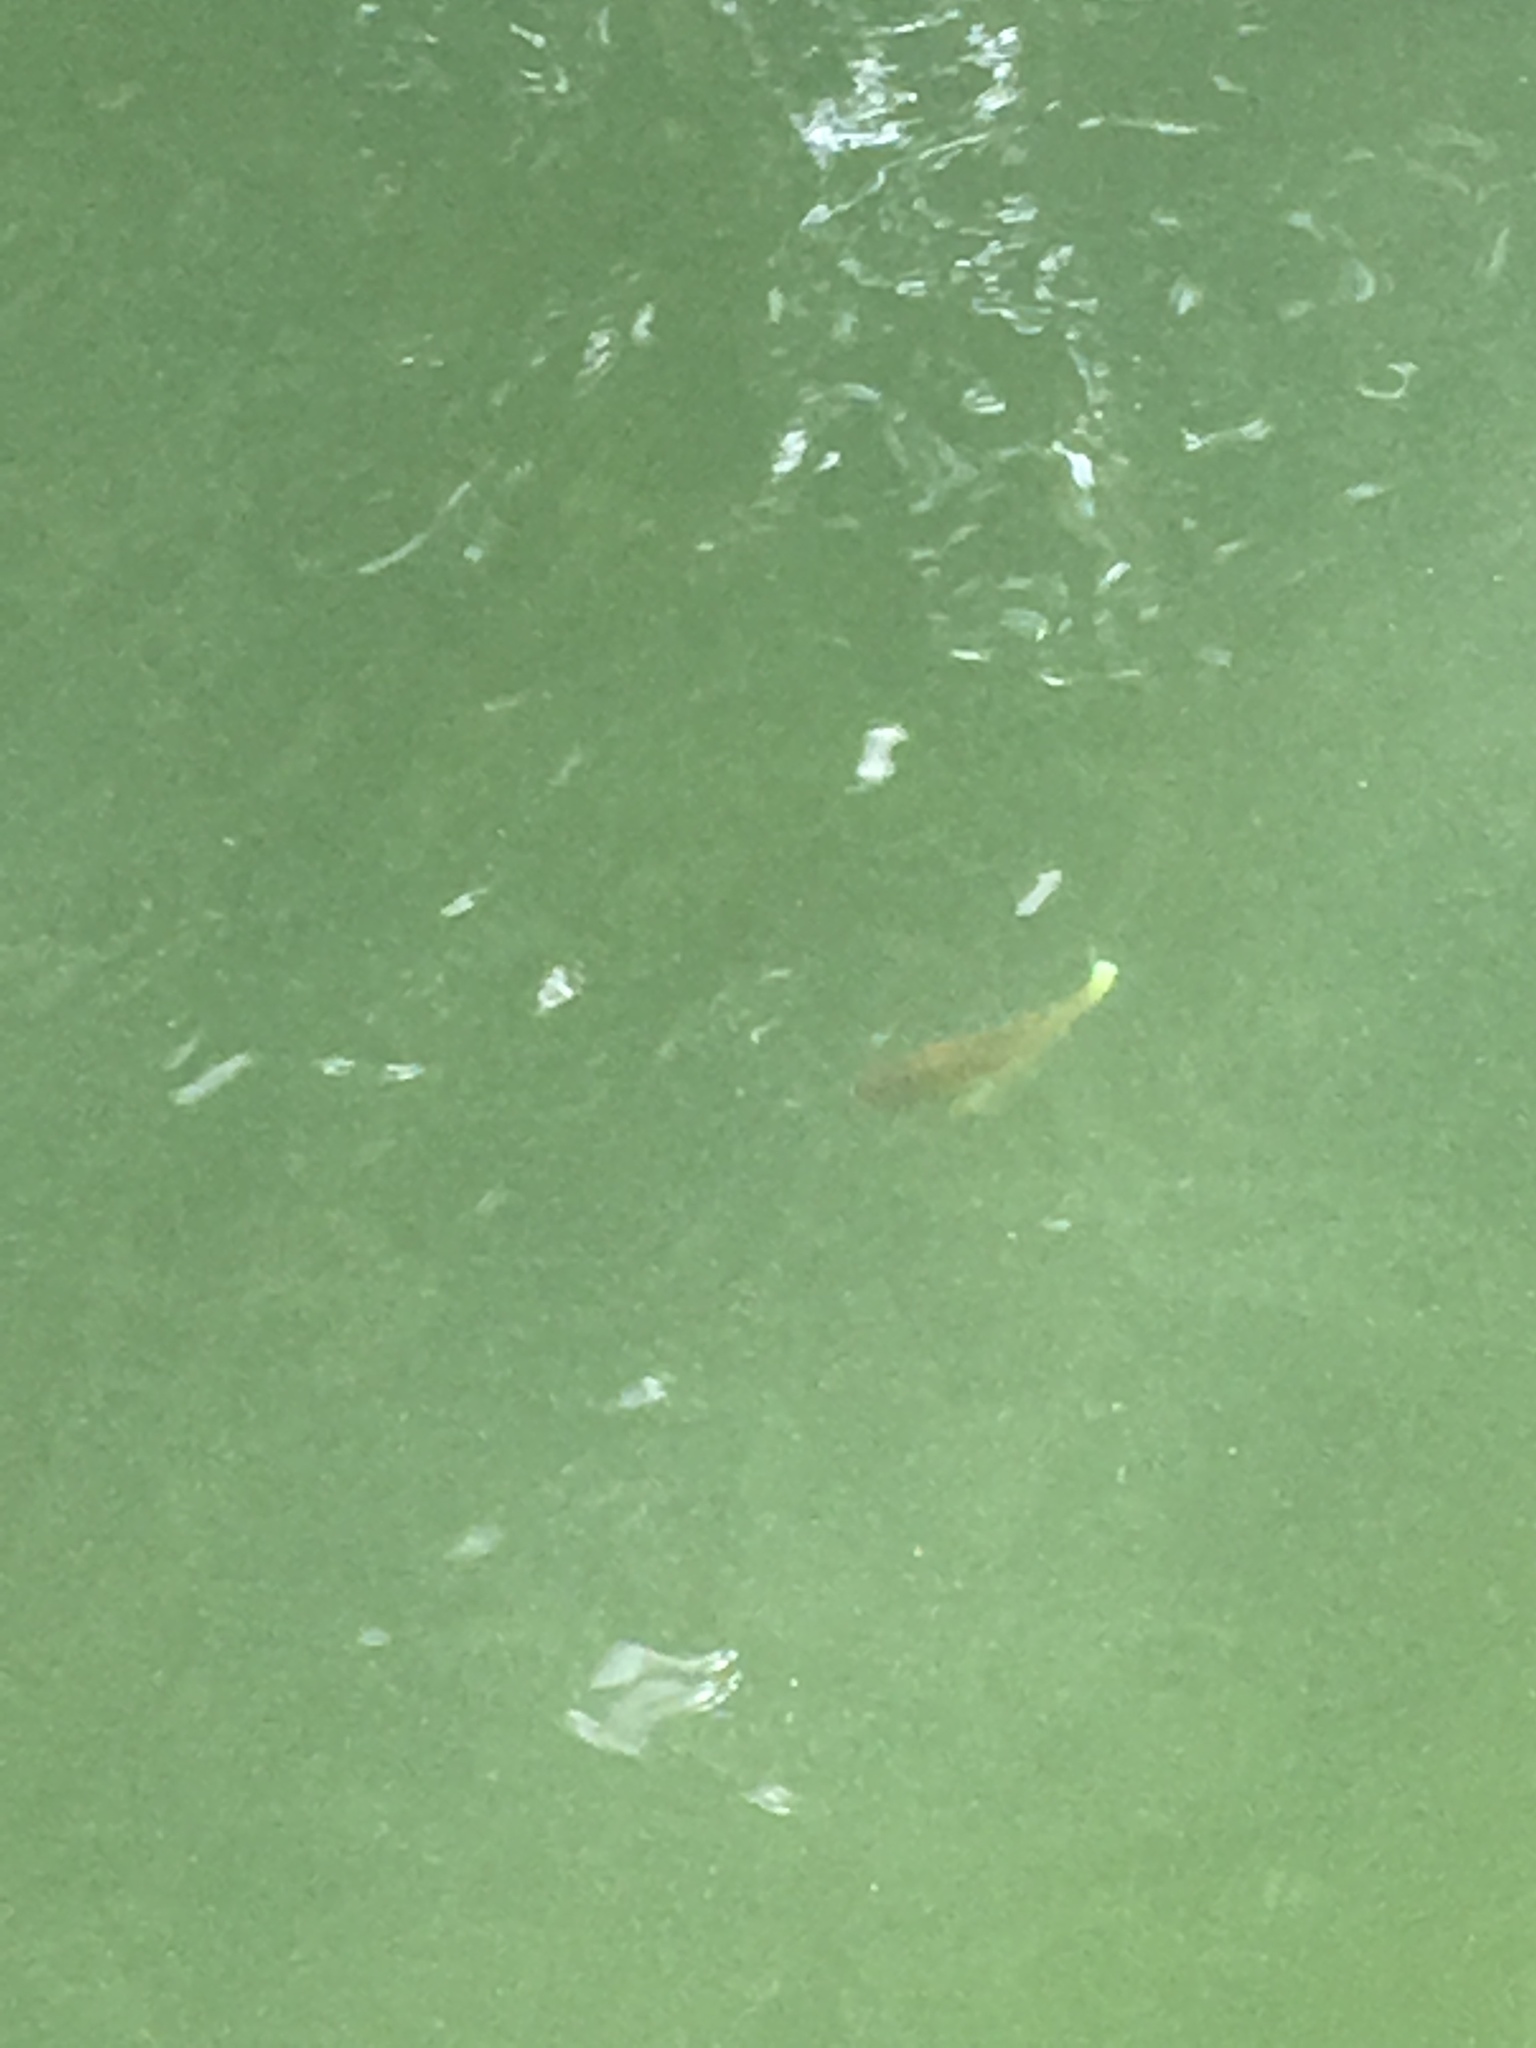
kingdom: Animalia
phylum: Chordata
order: Perciformes
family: Centrarchidae
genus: Lepomis
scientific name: Lepomis macrochirus
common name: Bluegill
